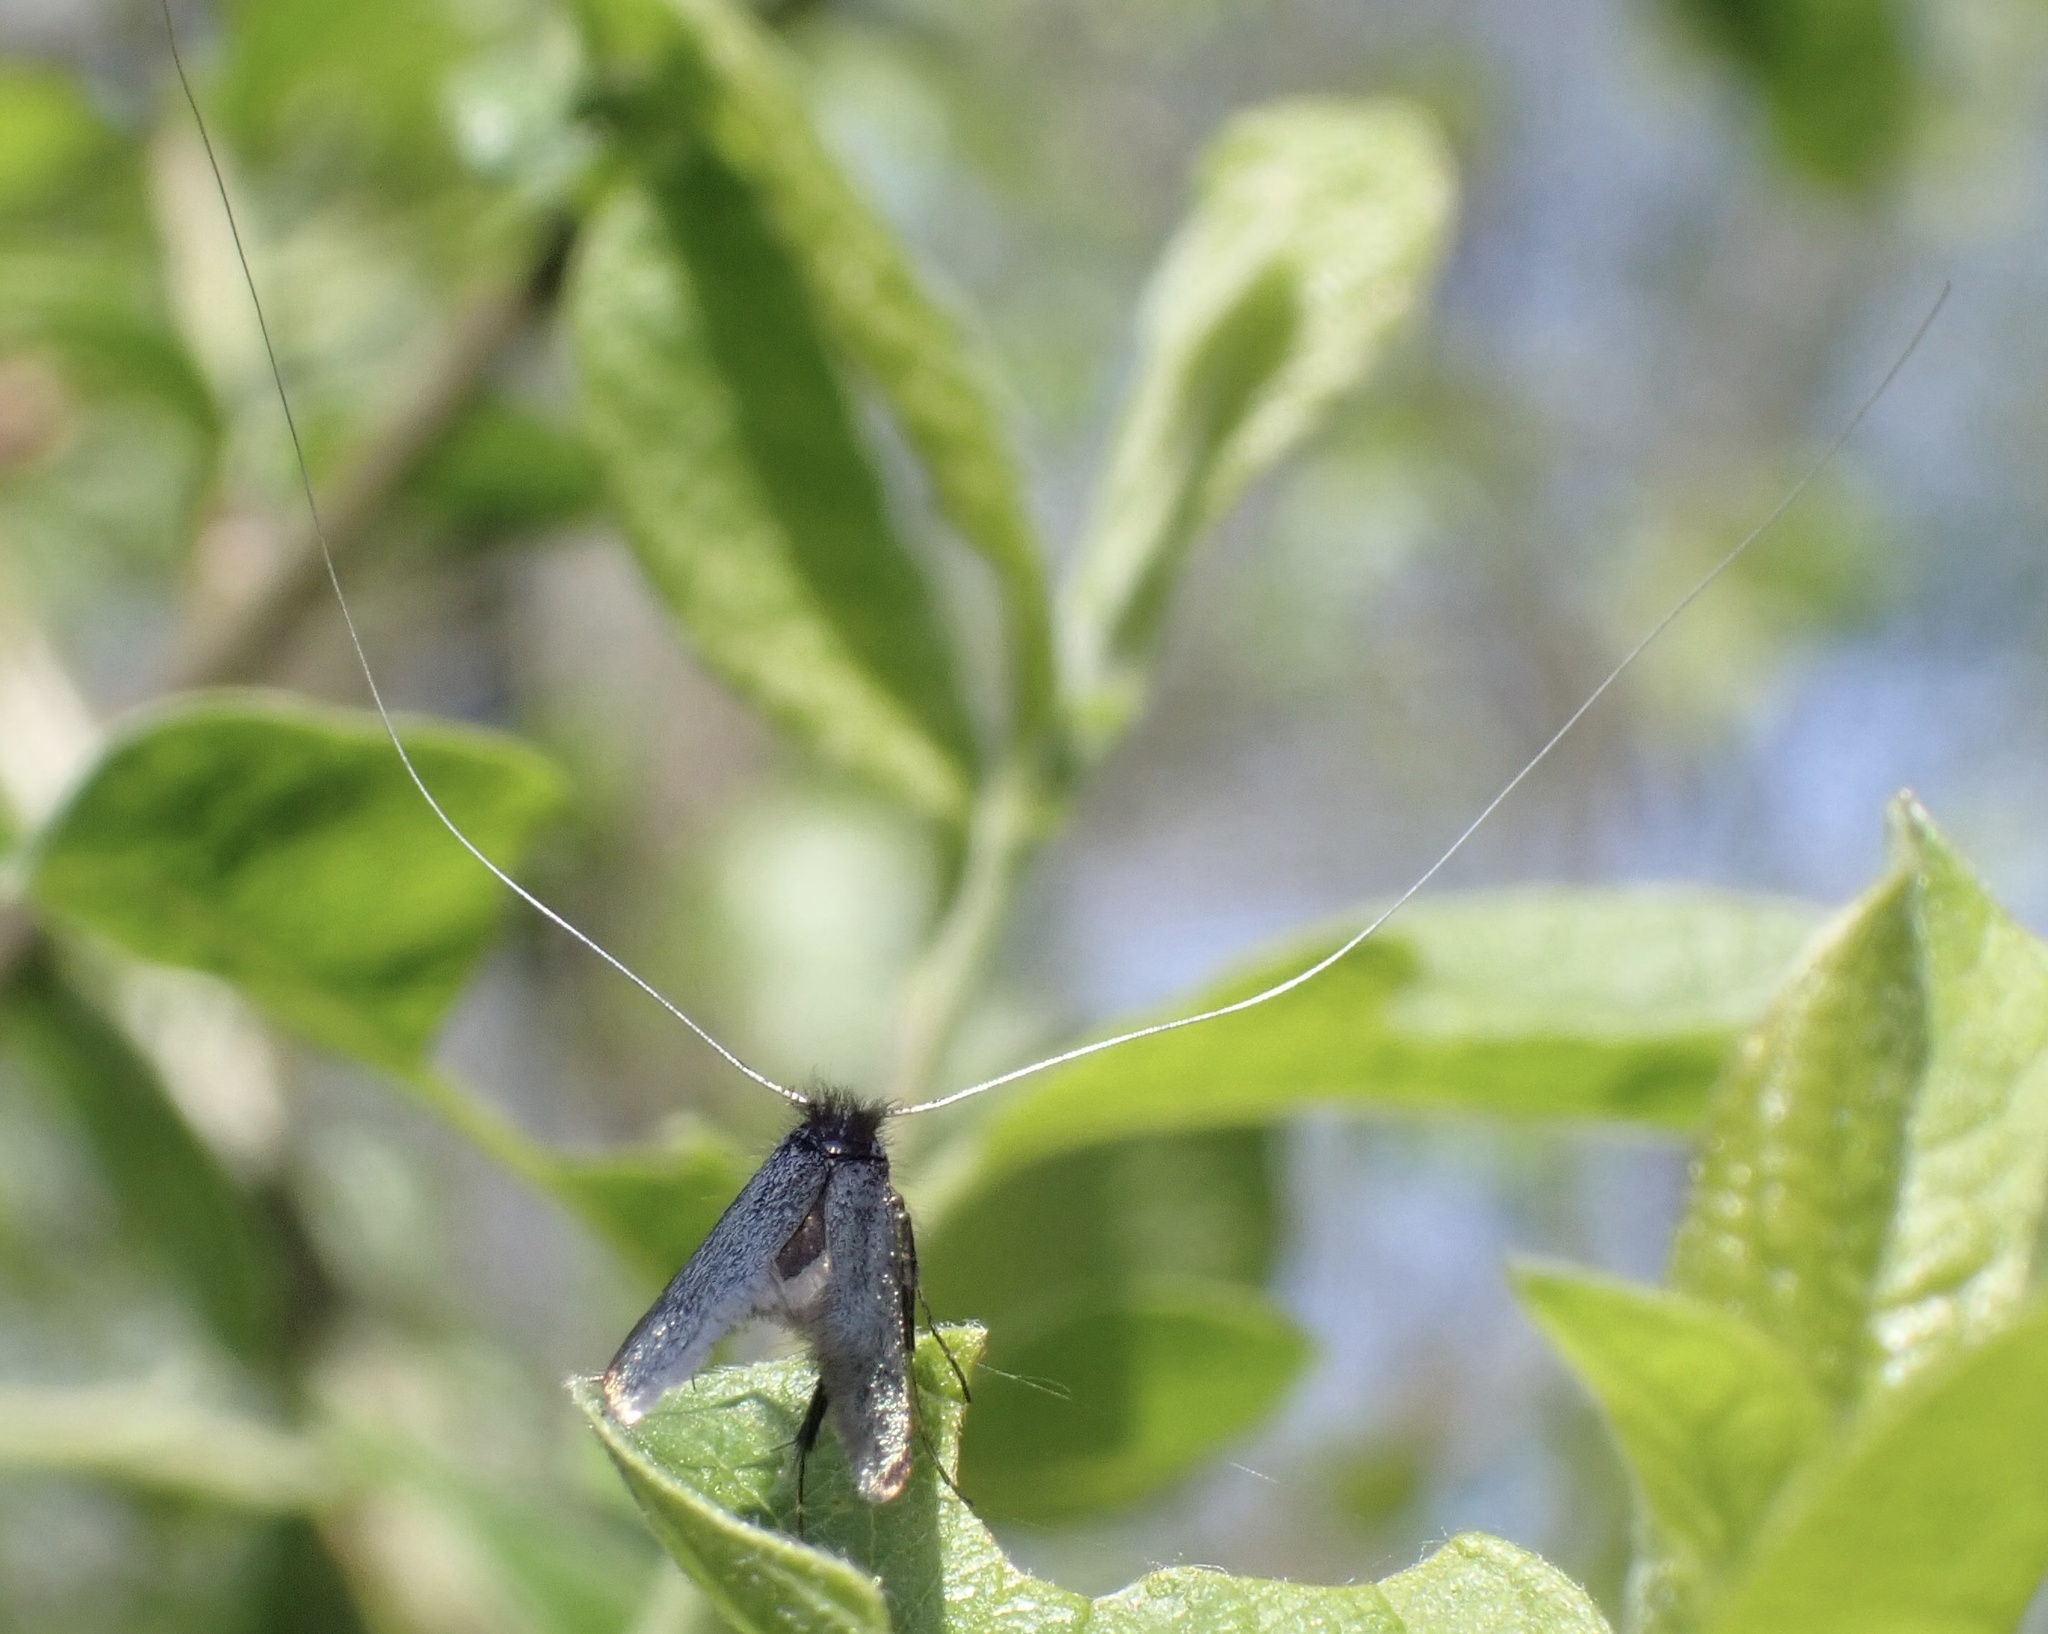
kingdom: Animalia
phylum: Arthropoda
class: Insecta
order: Lepidoptera
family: Adelidae
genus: Adela
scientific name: Adela viridella
